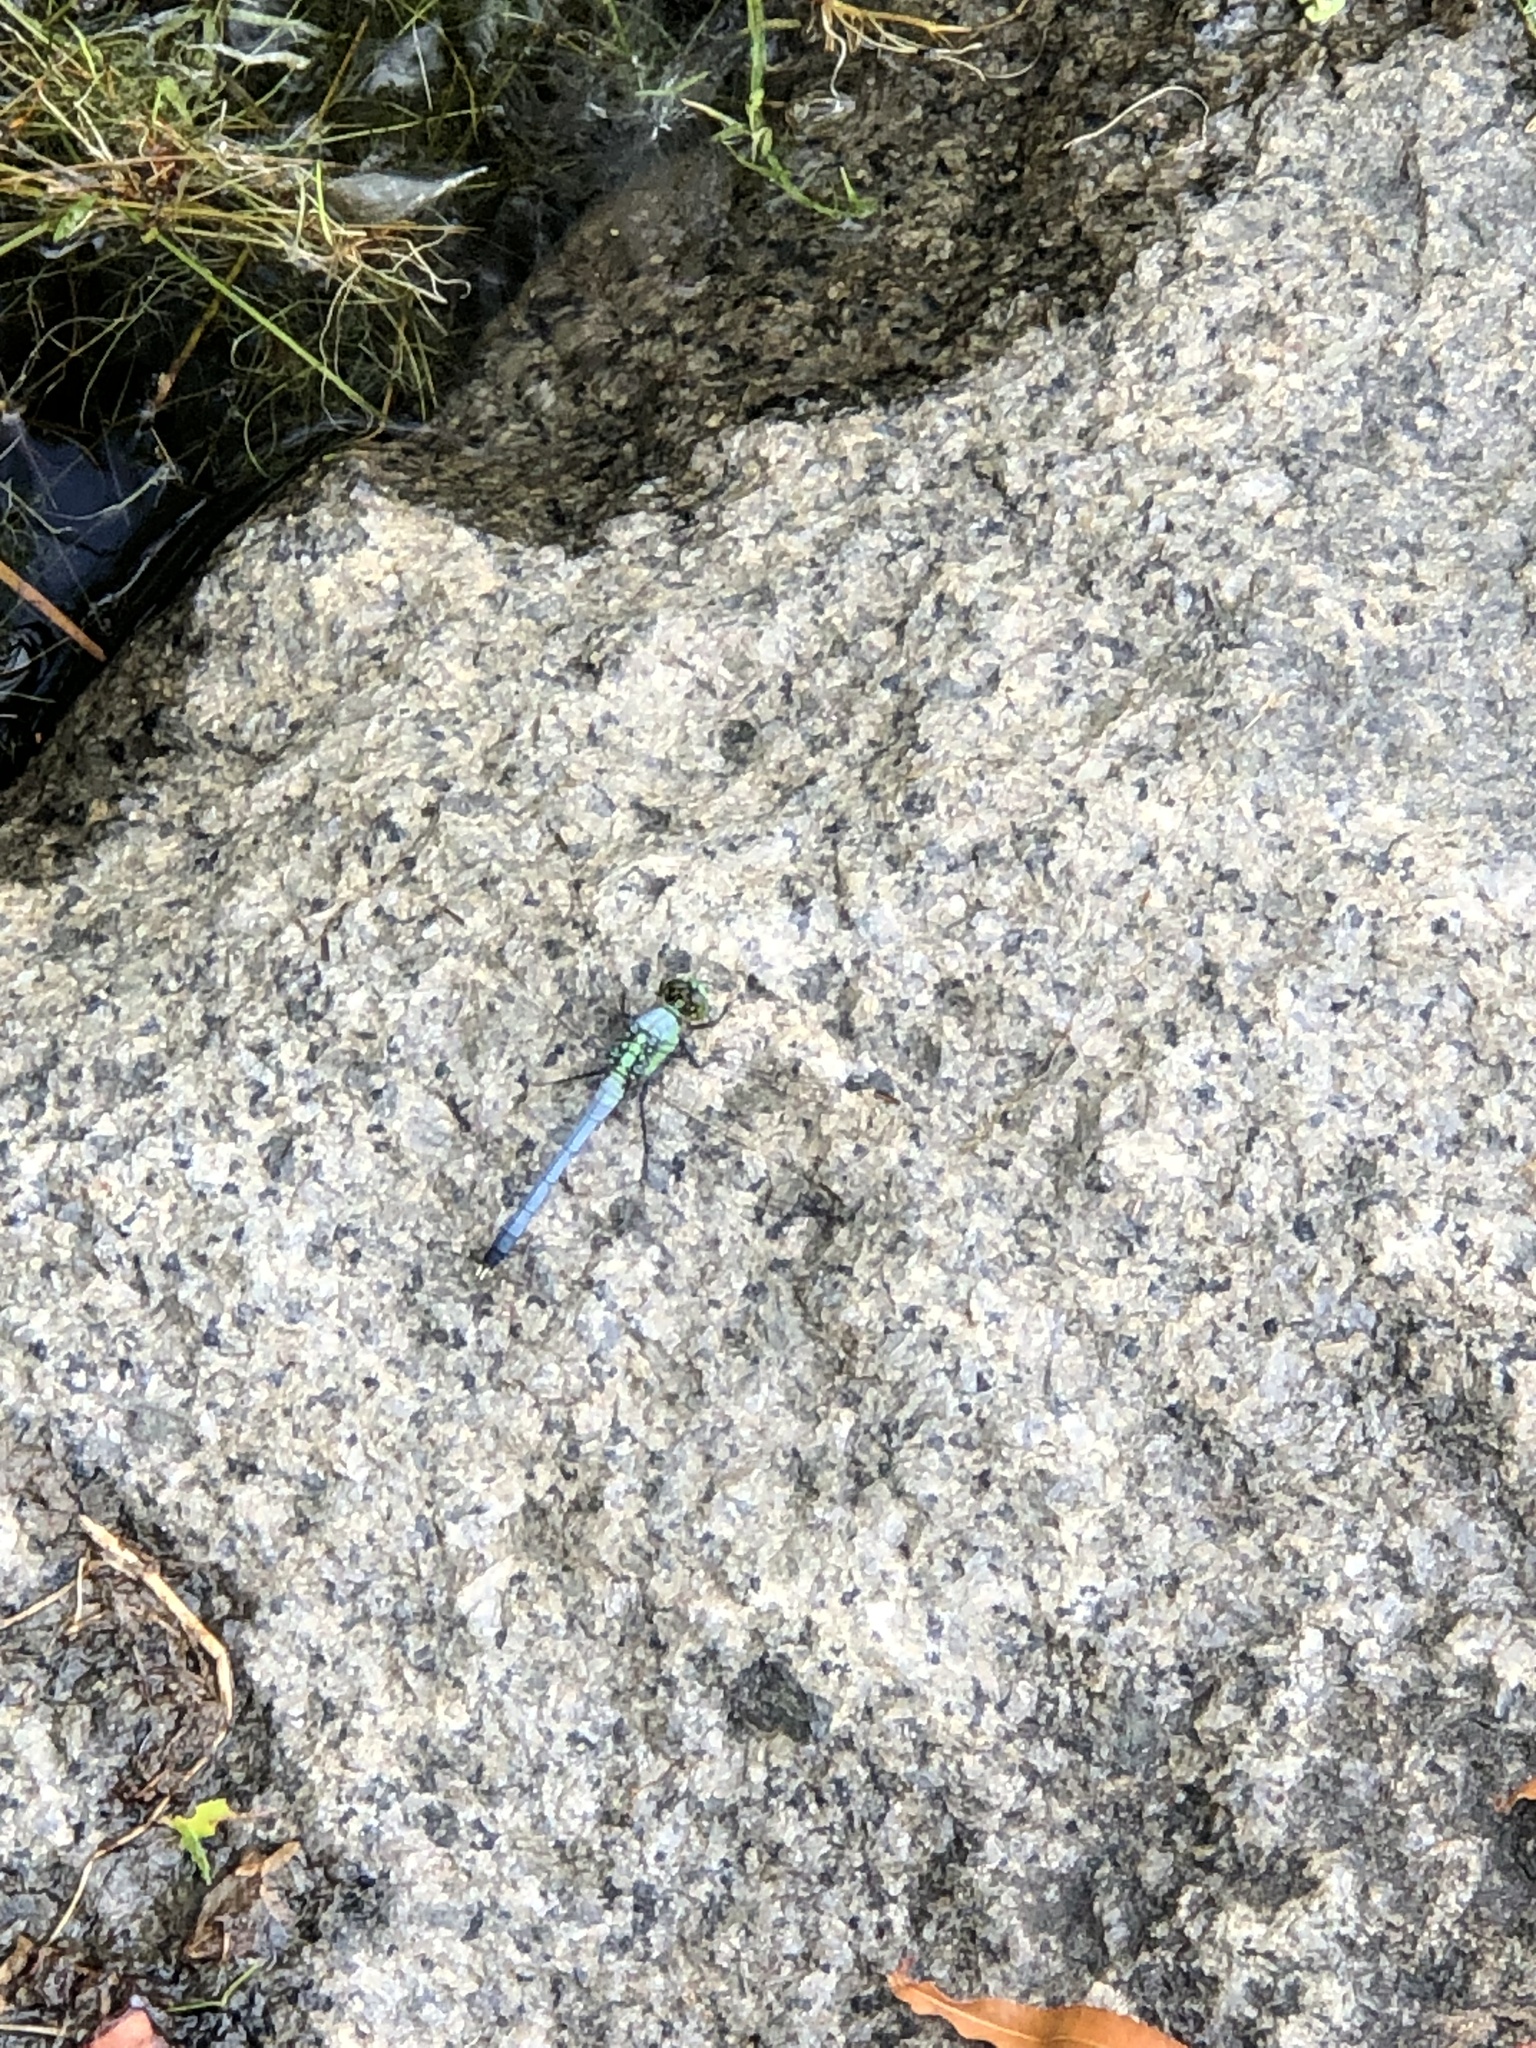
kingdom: Animalia
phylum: Arthropoda
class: Insecta
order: Odonata
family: Libellulidae
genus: Erythemis
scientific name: Erythemis simplicicollis
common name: Eastern pondhawk
